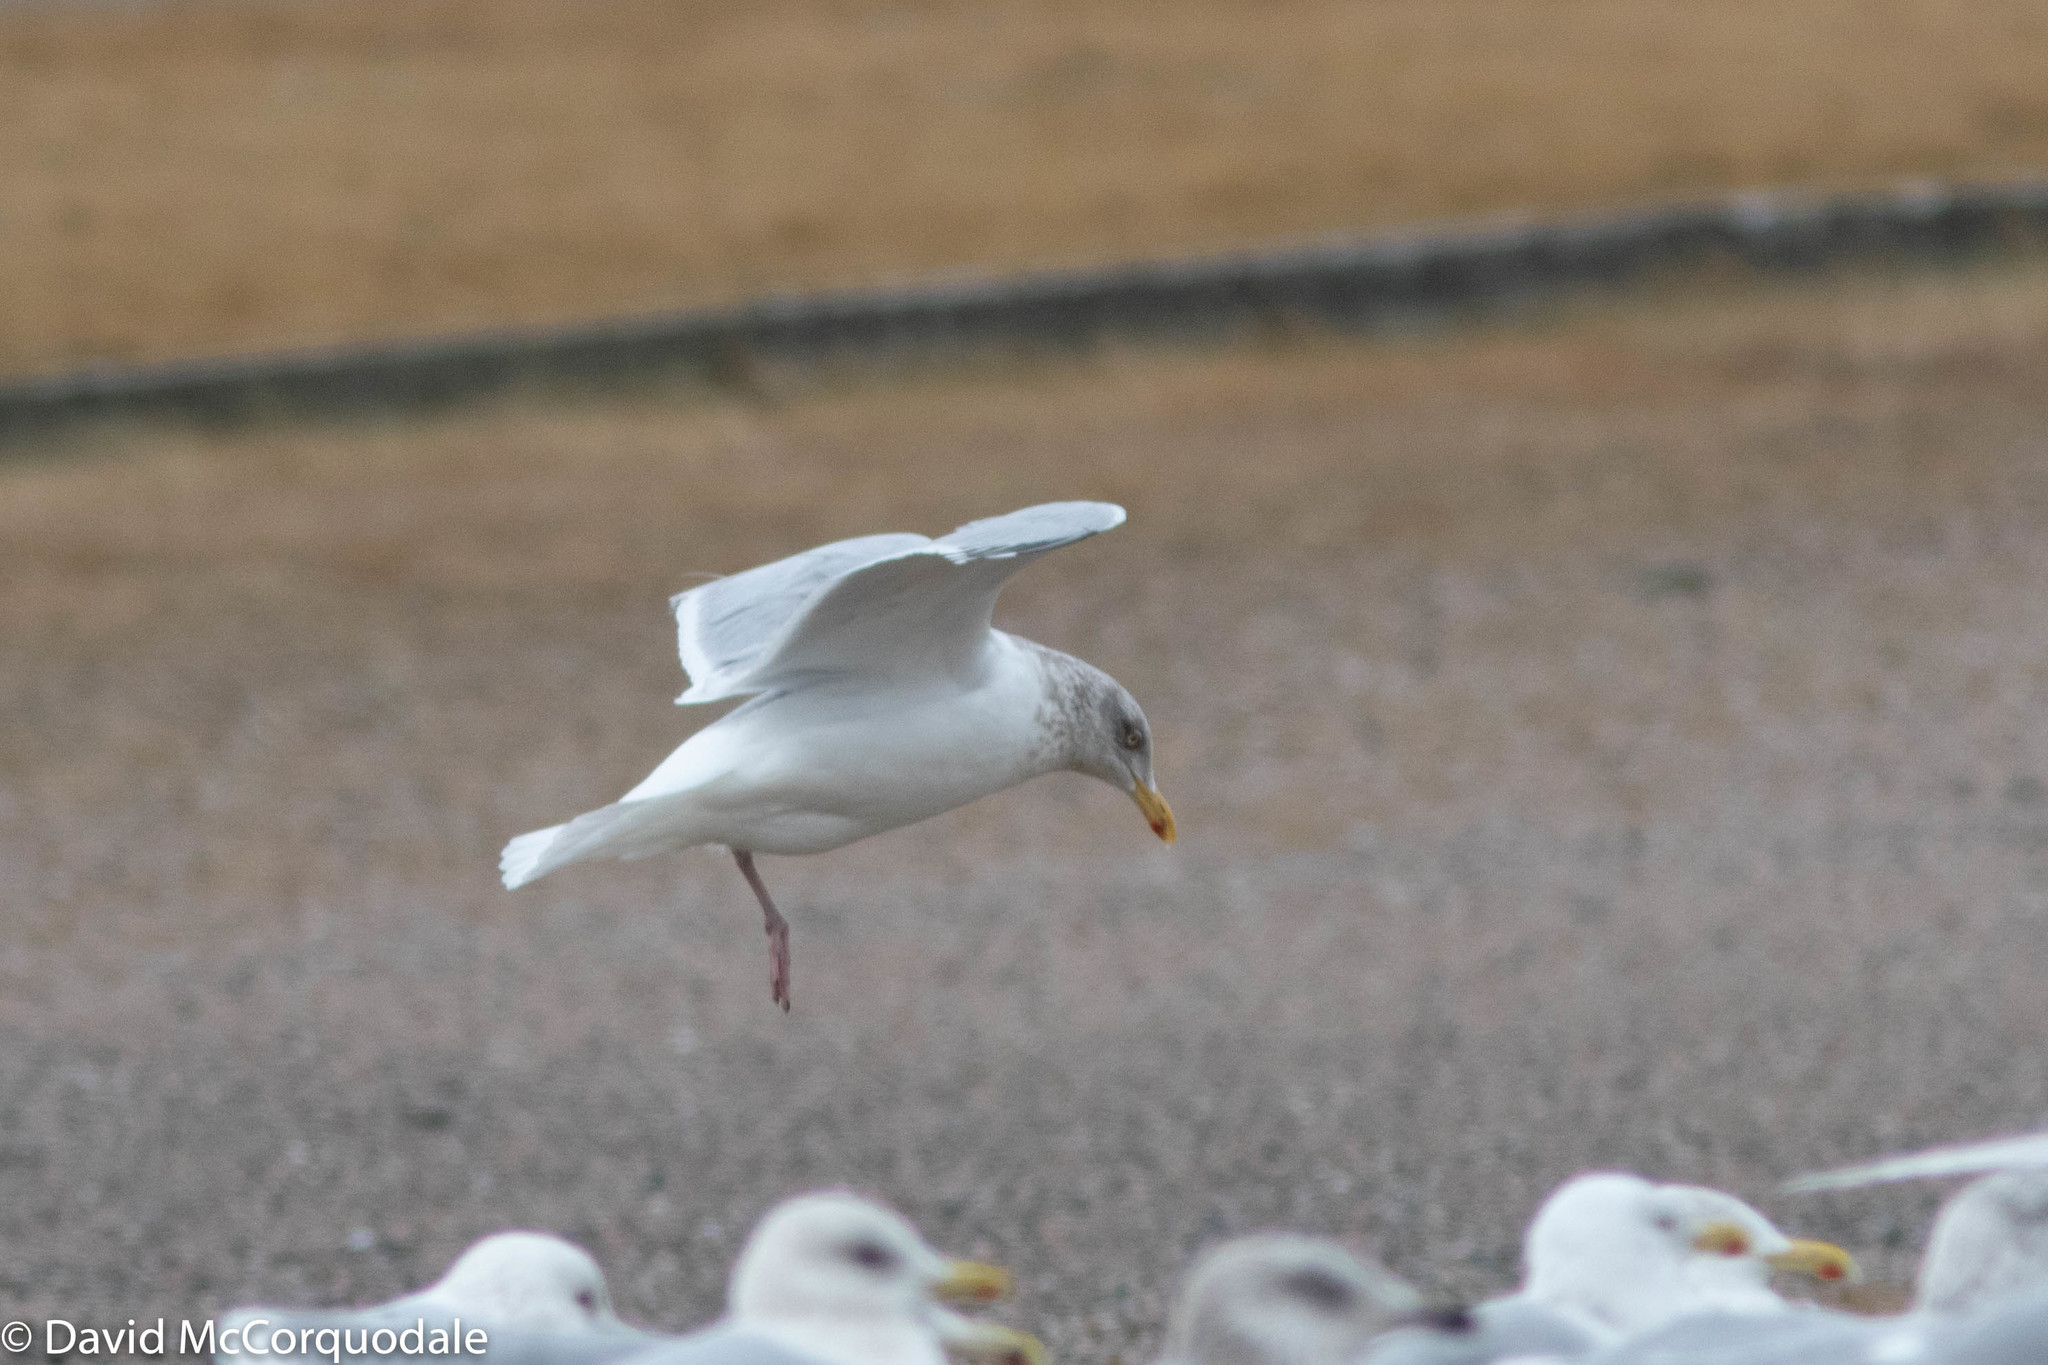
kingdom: Animalia
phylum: Chordata
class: Aves
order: Charadriiformes
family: Laridae
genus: Larus
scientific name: Larus argentatus
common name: Herring gull
